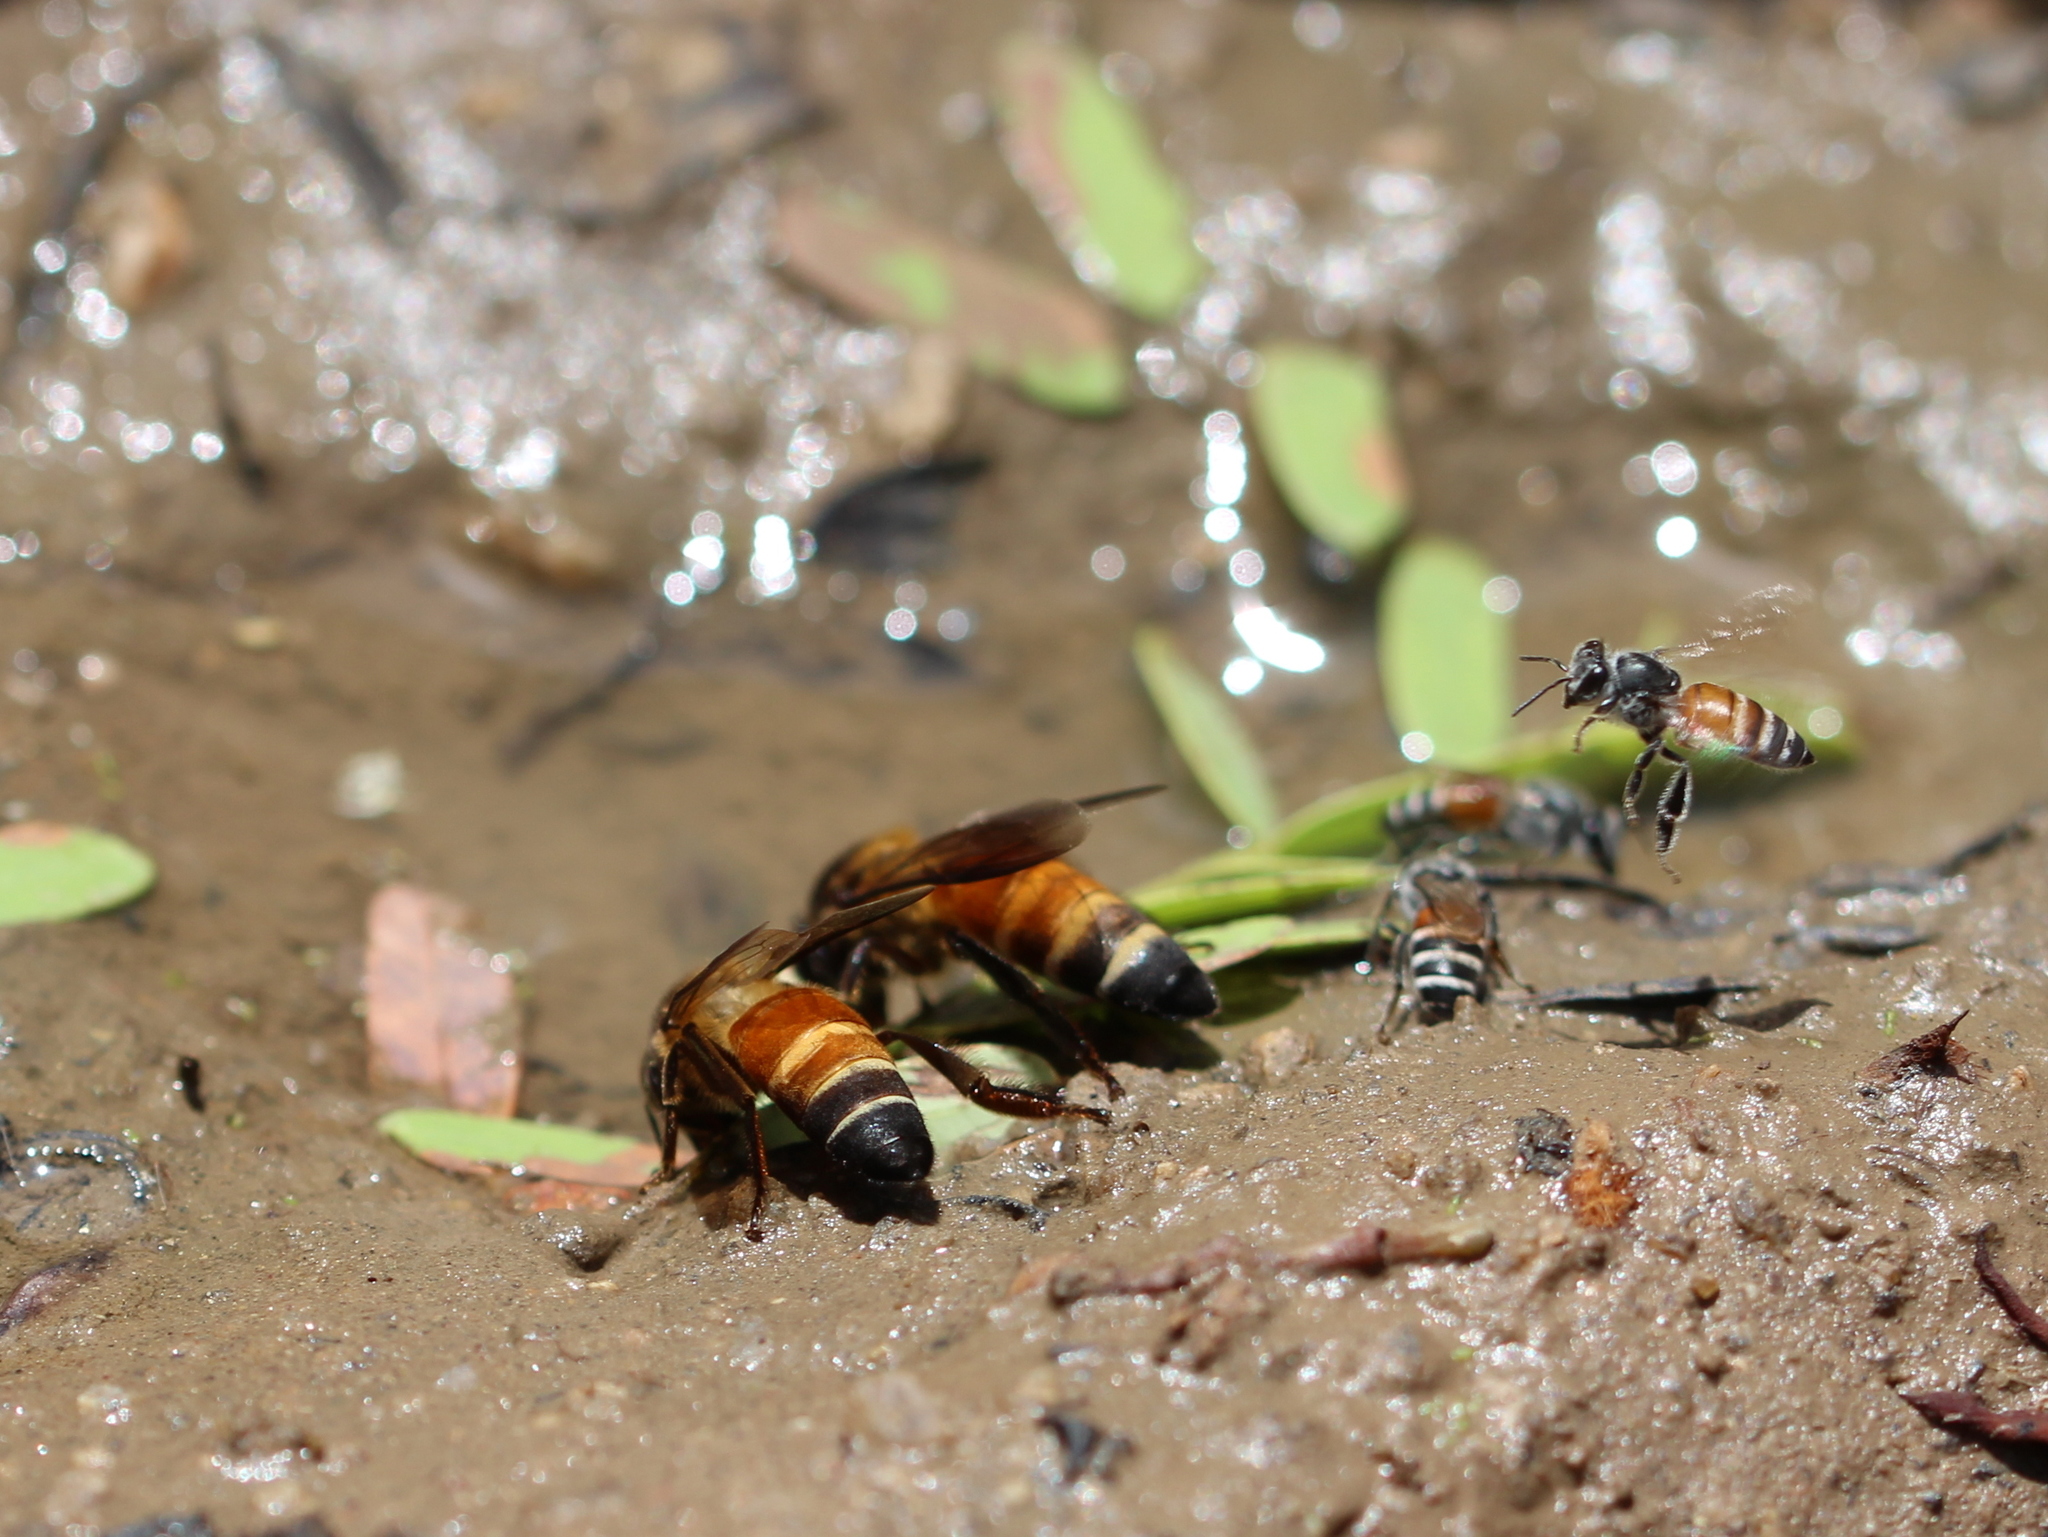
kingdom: Animalia
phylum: Arthropoda
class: Insecta
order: Hymenoptera
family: Apidae
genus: Apis
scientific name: Apis dorsata
